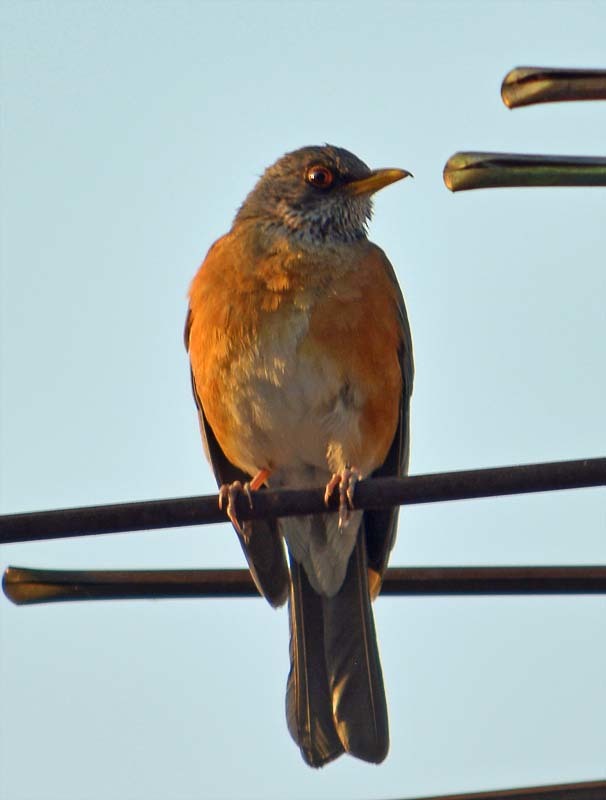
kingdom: Animalia
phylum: Chordata
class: Aves
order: Passeriformes
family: Turdidae
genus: Turdus
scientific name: Turdus rufopalliatus
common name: Rufous-backed robin
